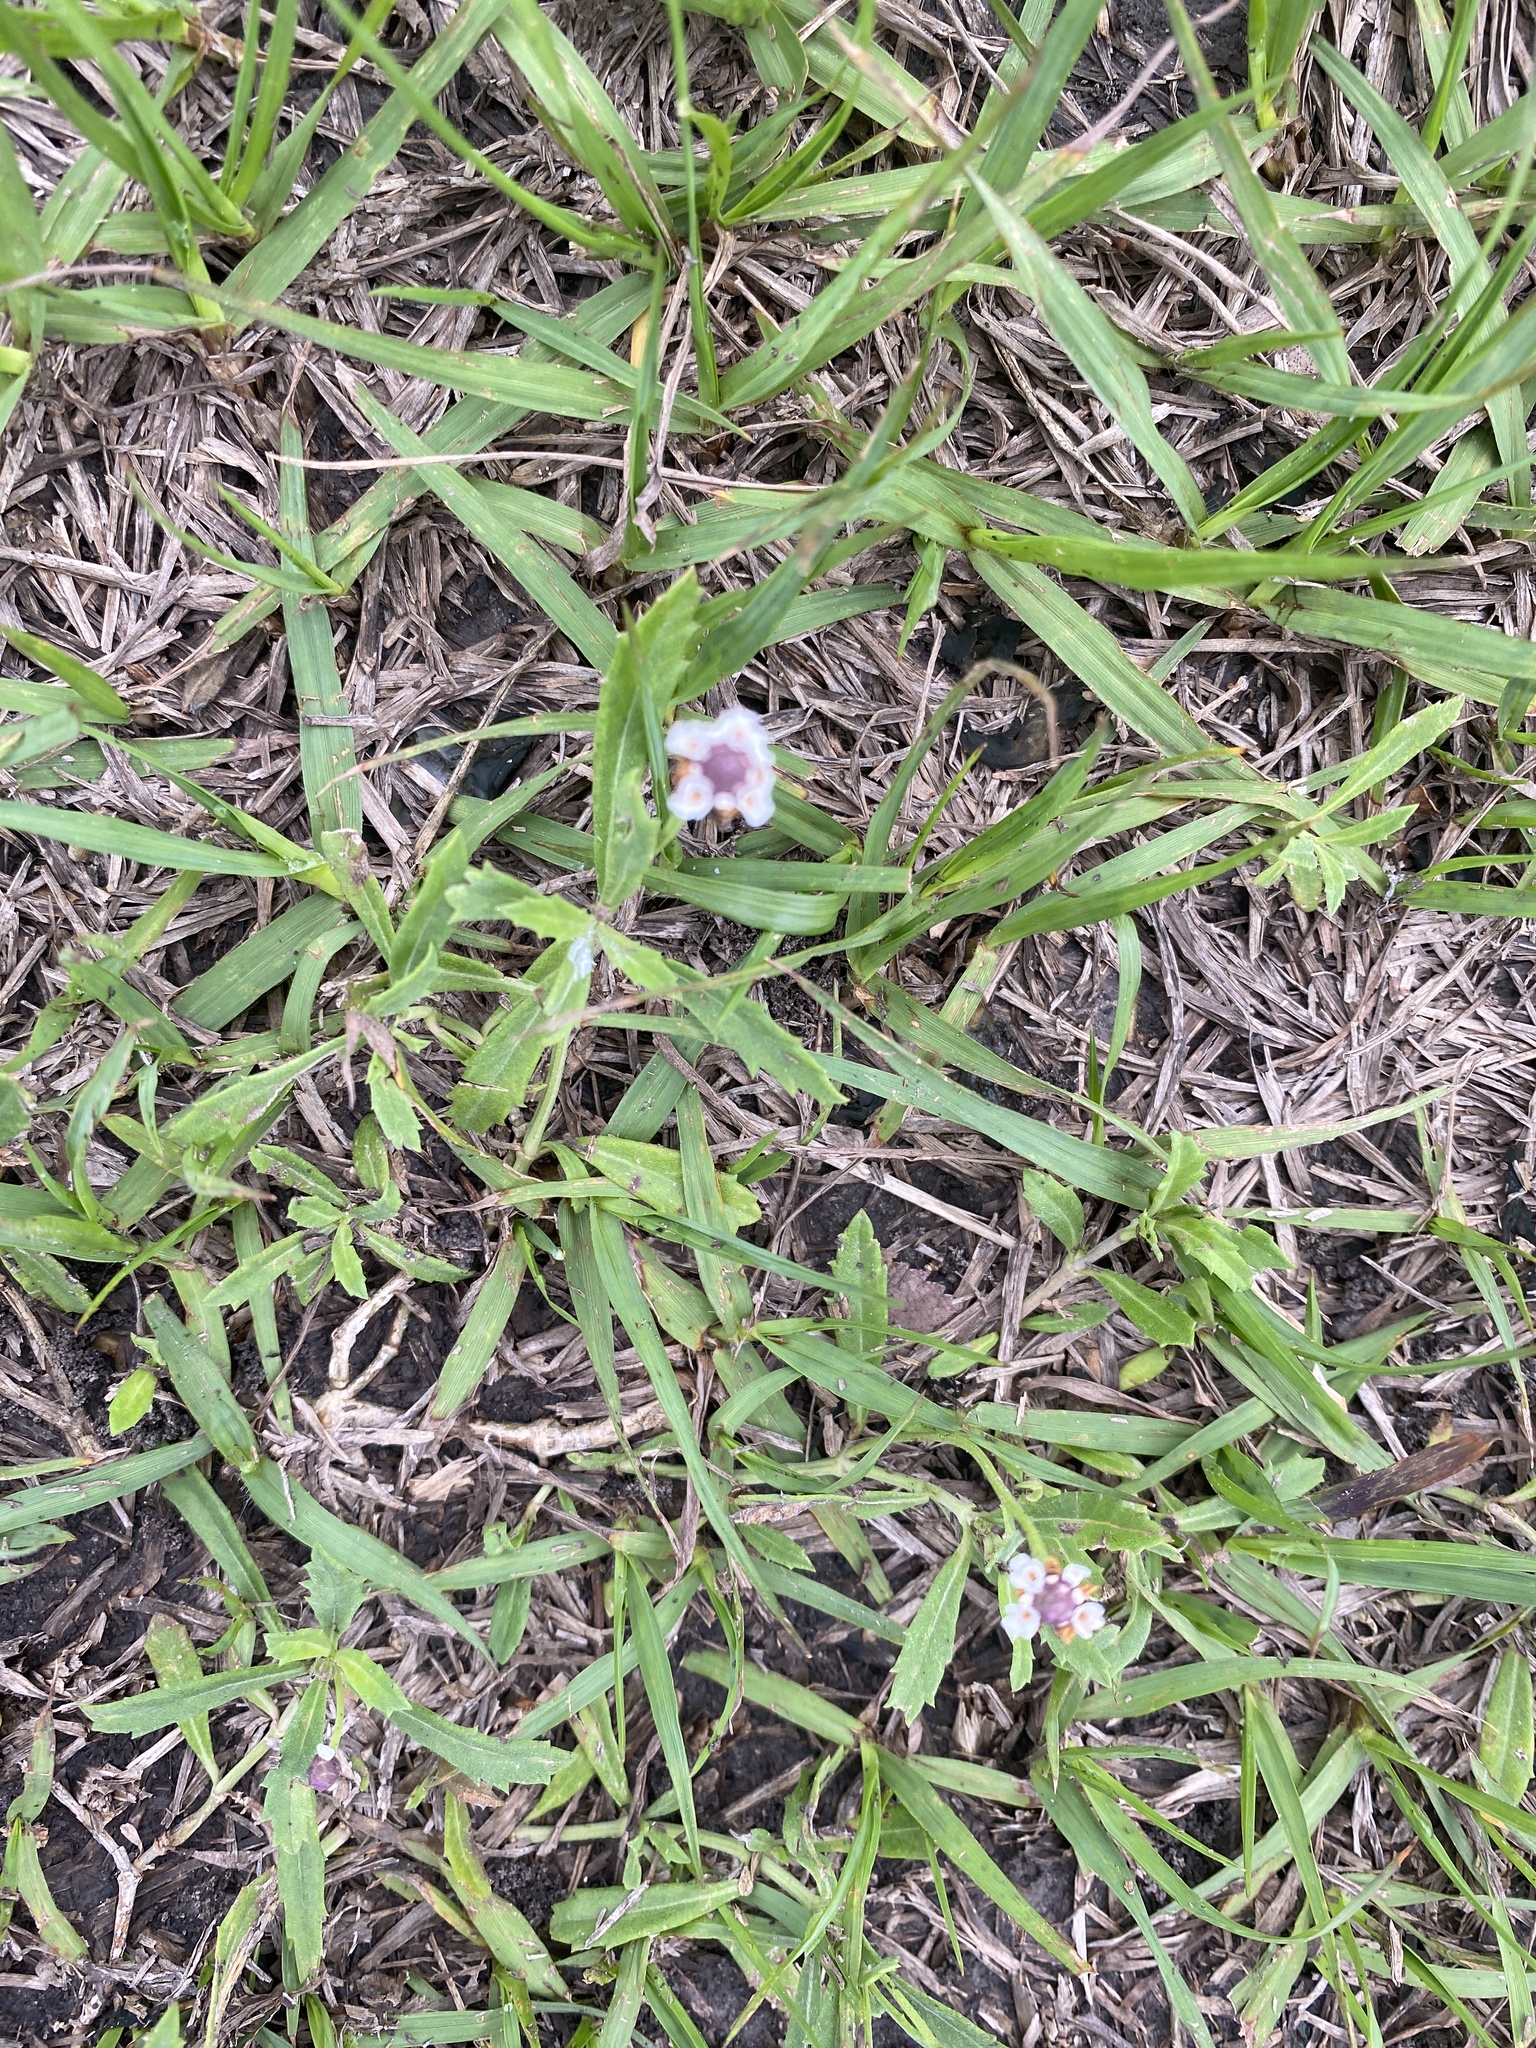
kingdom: Plantae
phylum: Tracheophyta
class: Magnoliopsida
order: Lamiales
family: Verbenaceae
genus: Phyla
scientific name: Phyla nodiflora
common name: Frogfruit
